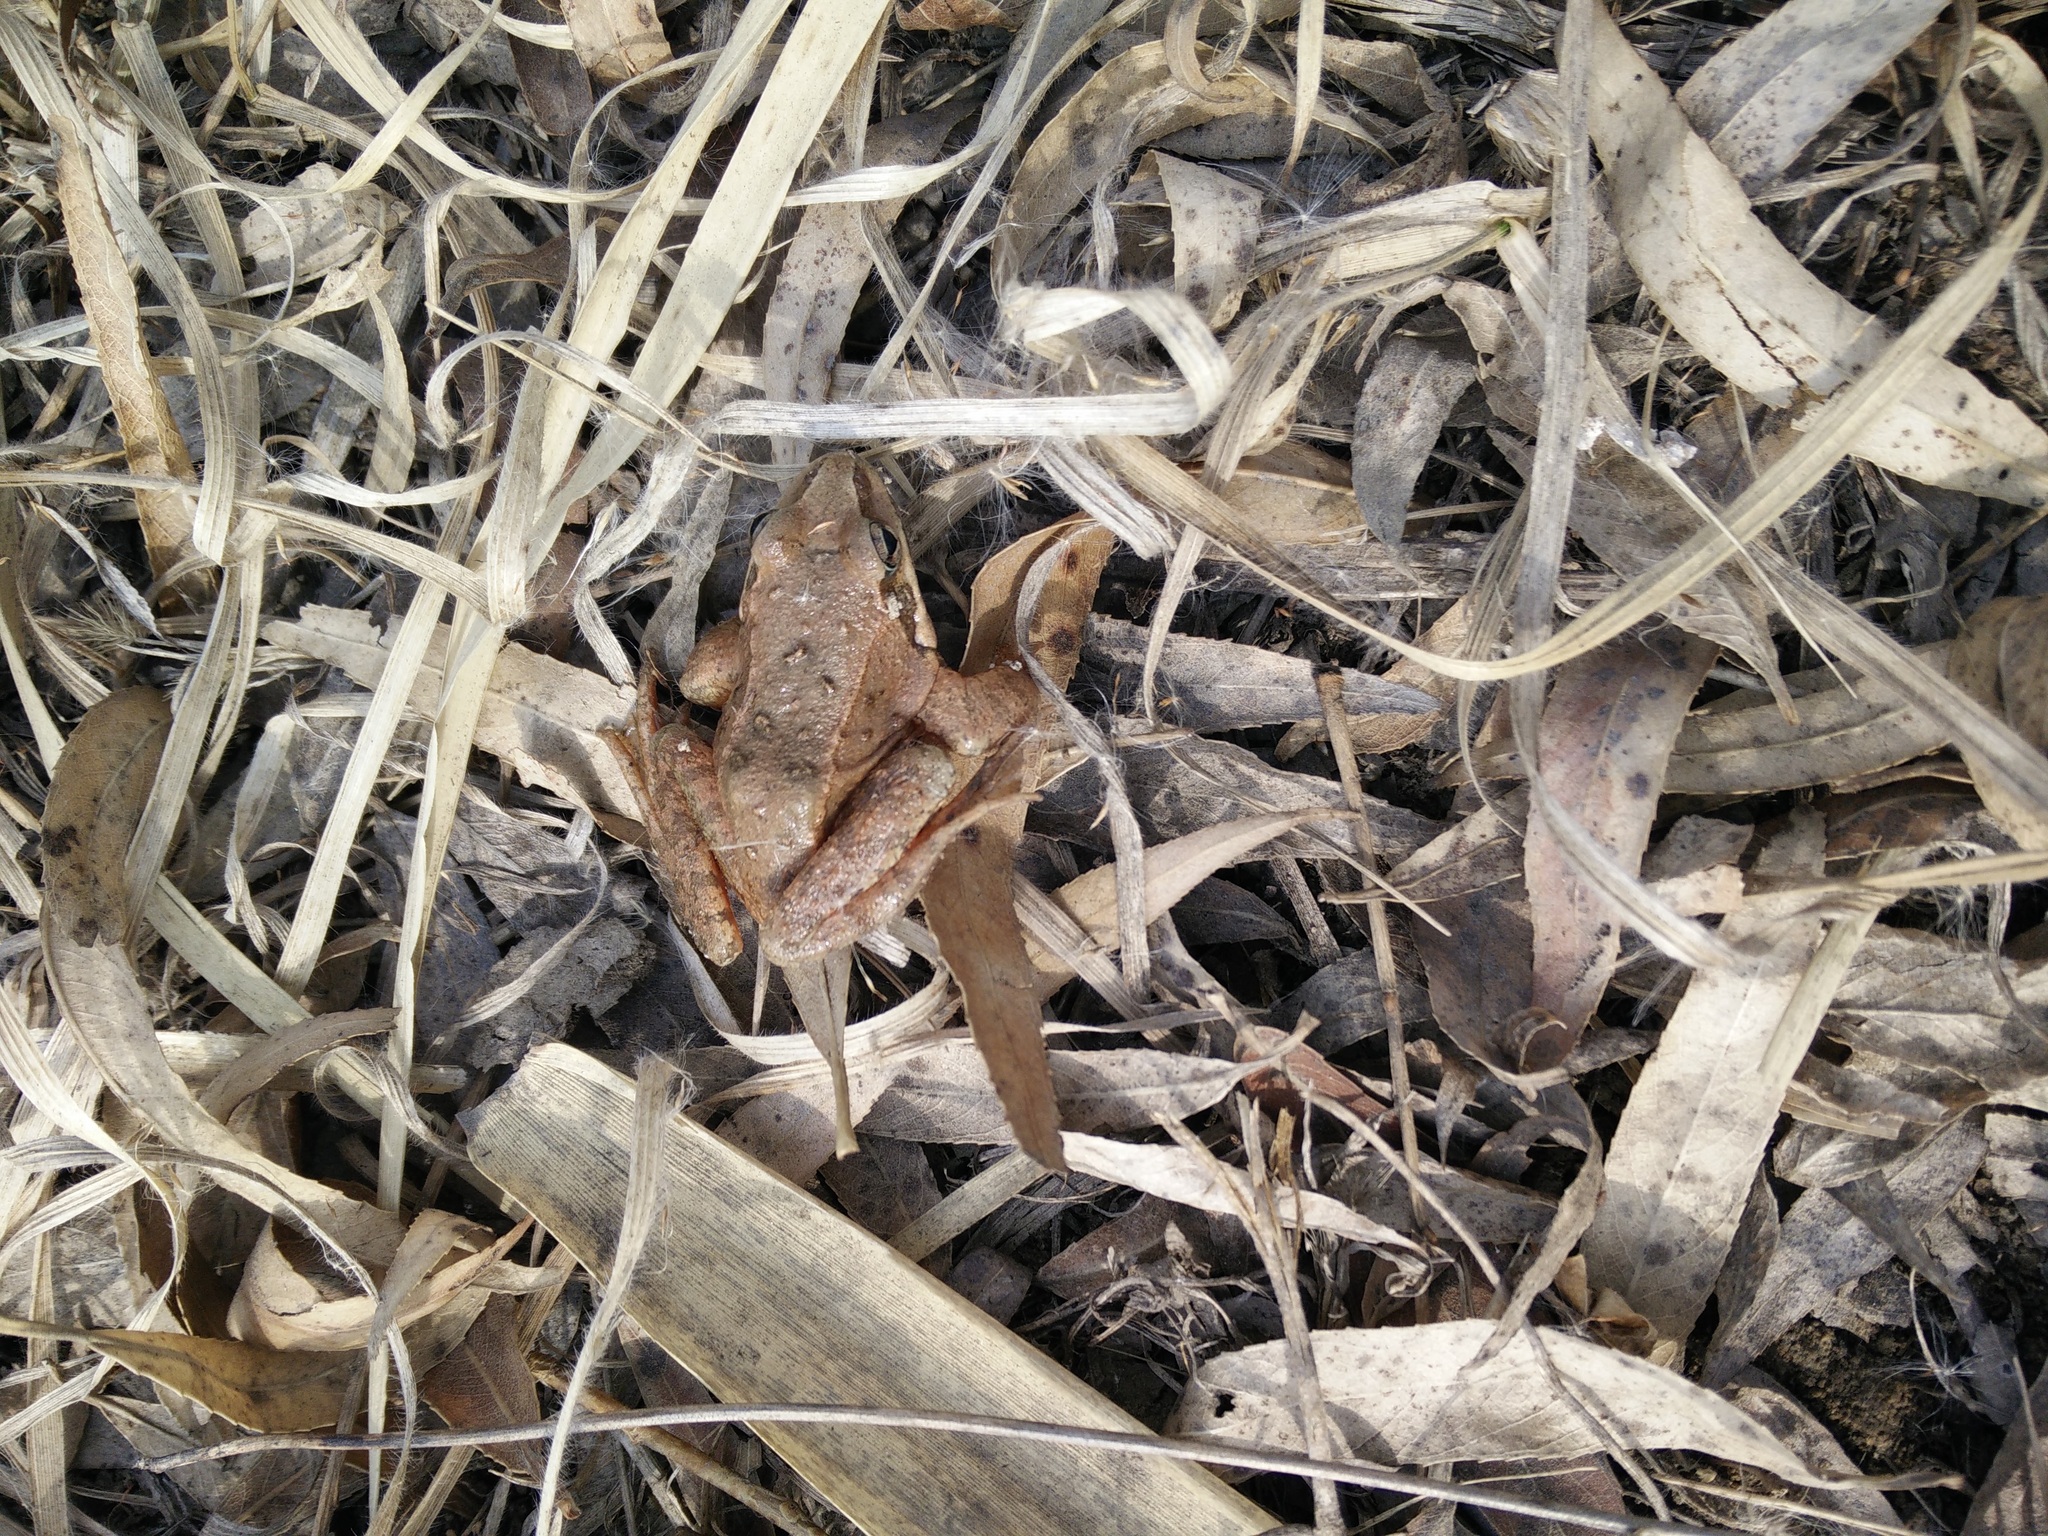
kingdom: Animalia
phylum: Chordata
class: Amphibia
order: Anura
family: Ranidae
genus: Rana
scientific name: Rana
